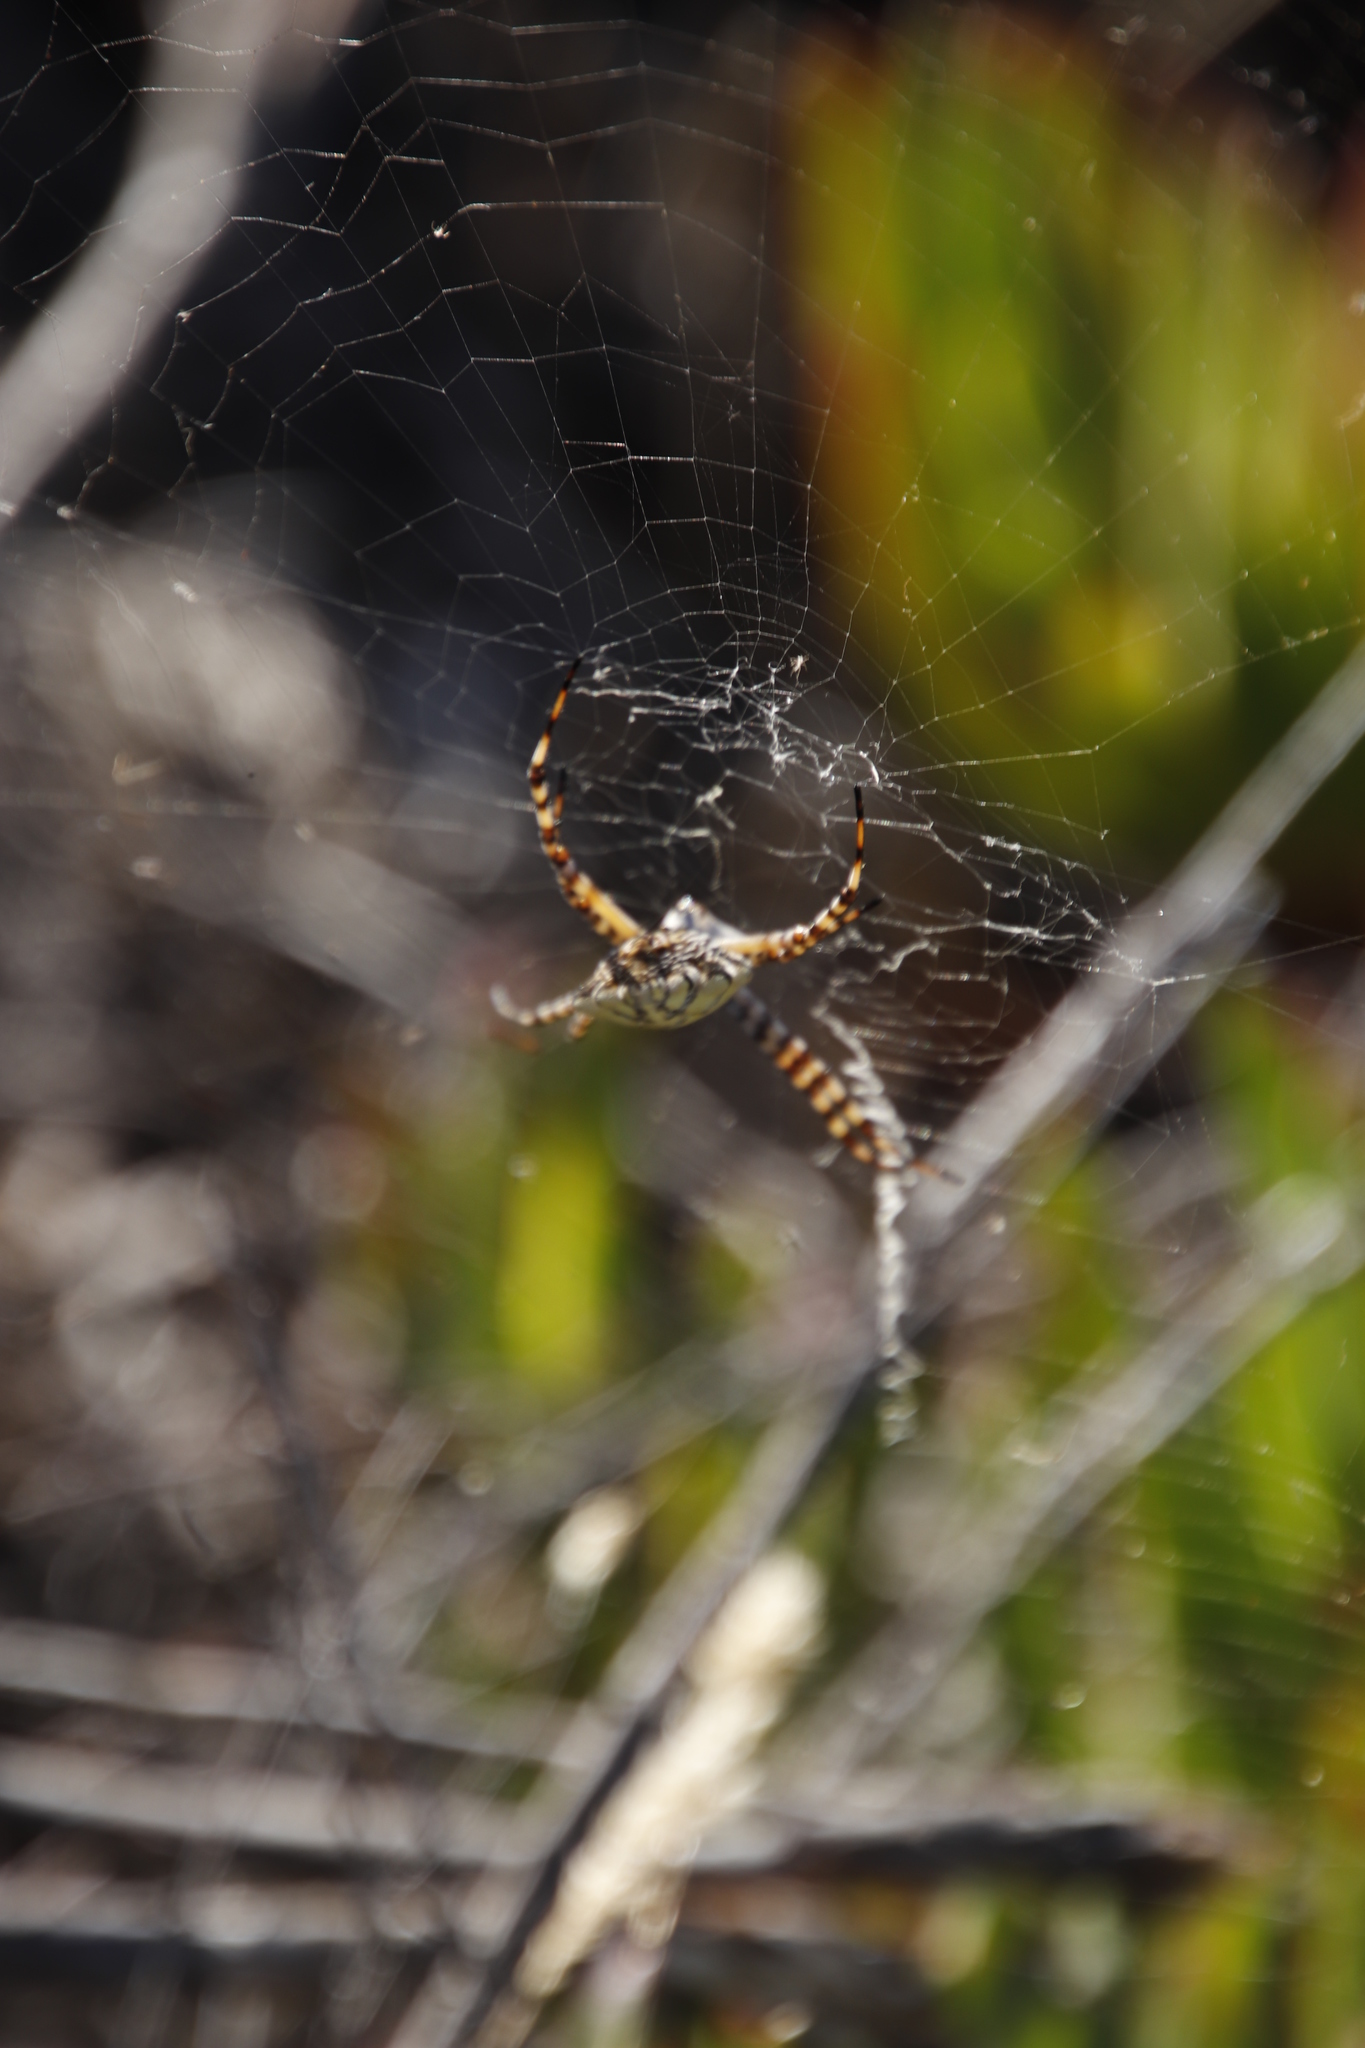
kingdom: Animalia
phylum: Arthropoda
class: Arachnida
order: Araneae
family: Araneidae
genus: Argiope
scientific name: Argiope australis
